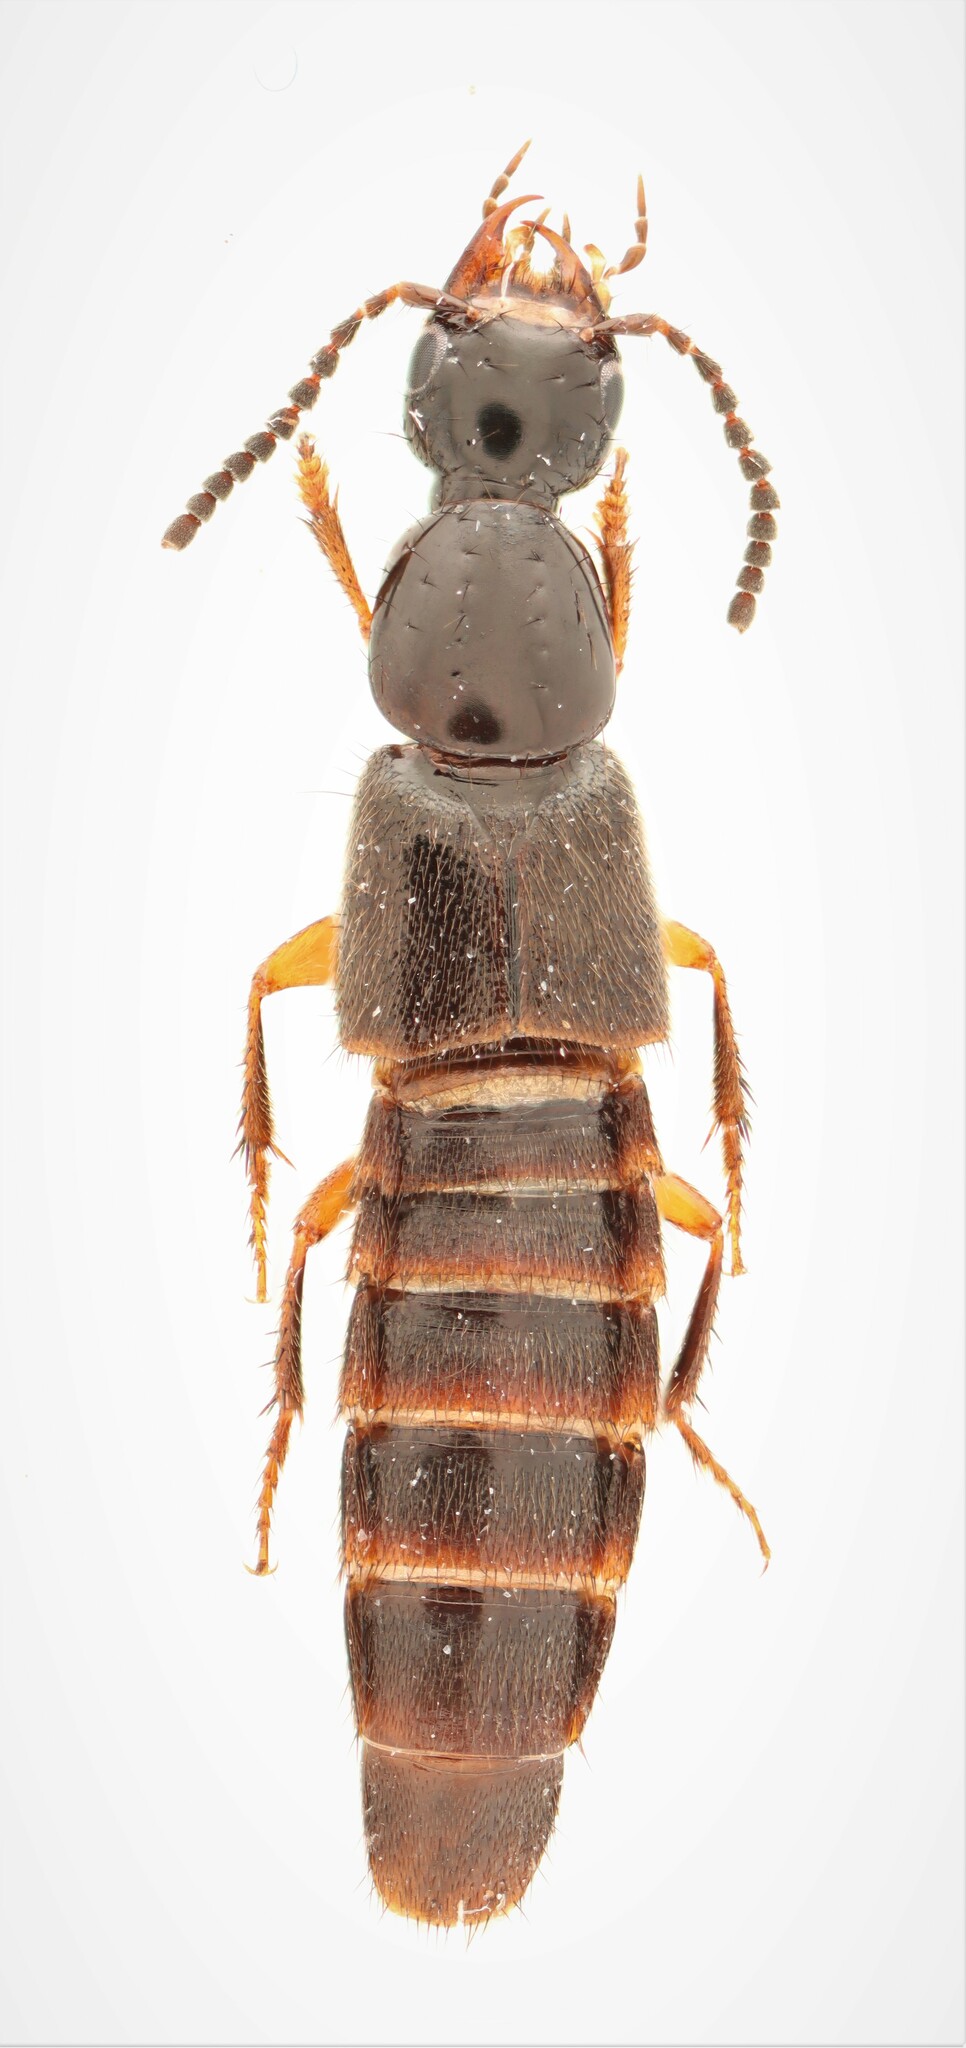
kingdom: Animalia
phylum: Arthropoda
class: Insecta
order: Coleoptera
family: Staphylinidae
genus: Philonthus
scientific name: Philonthus sericans
